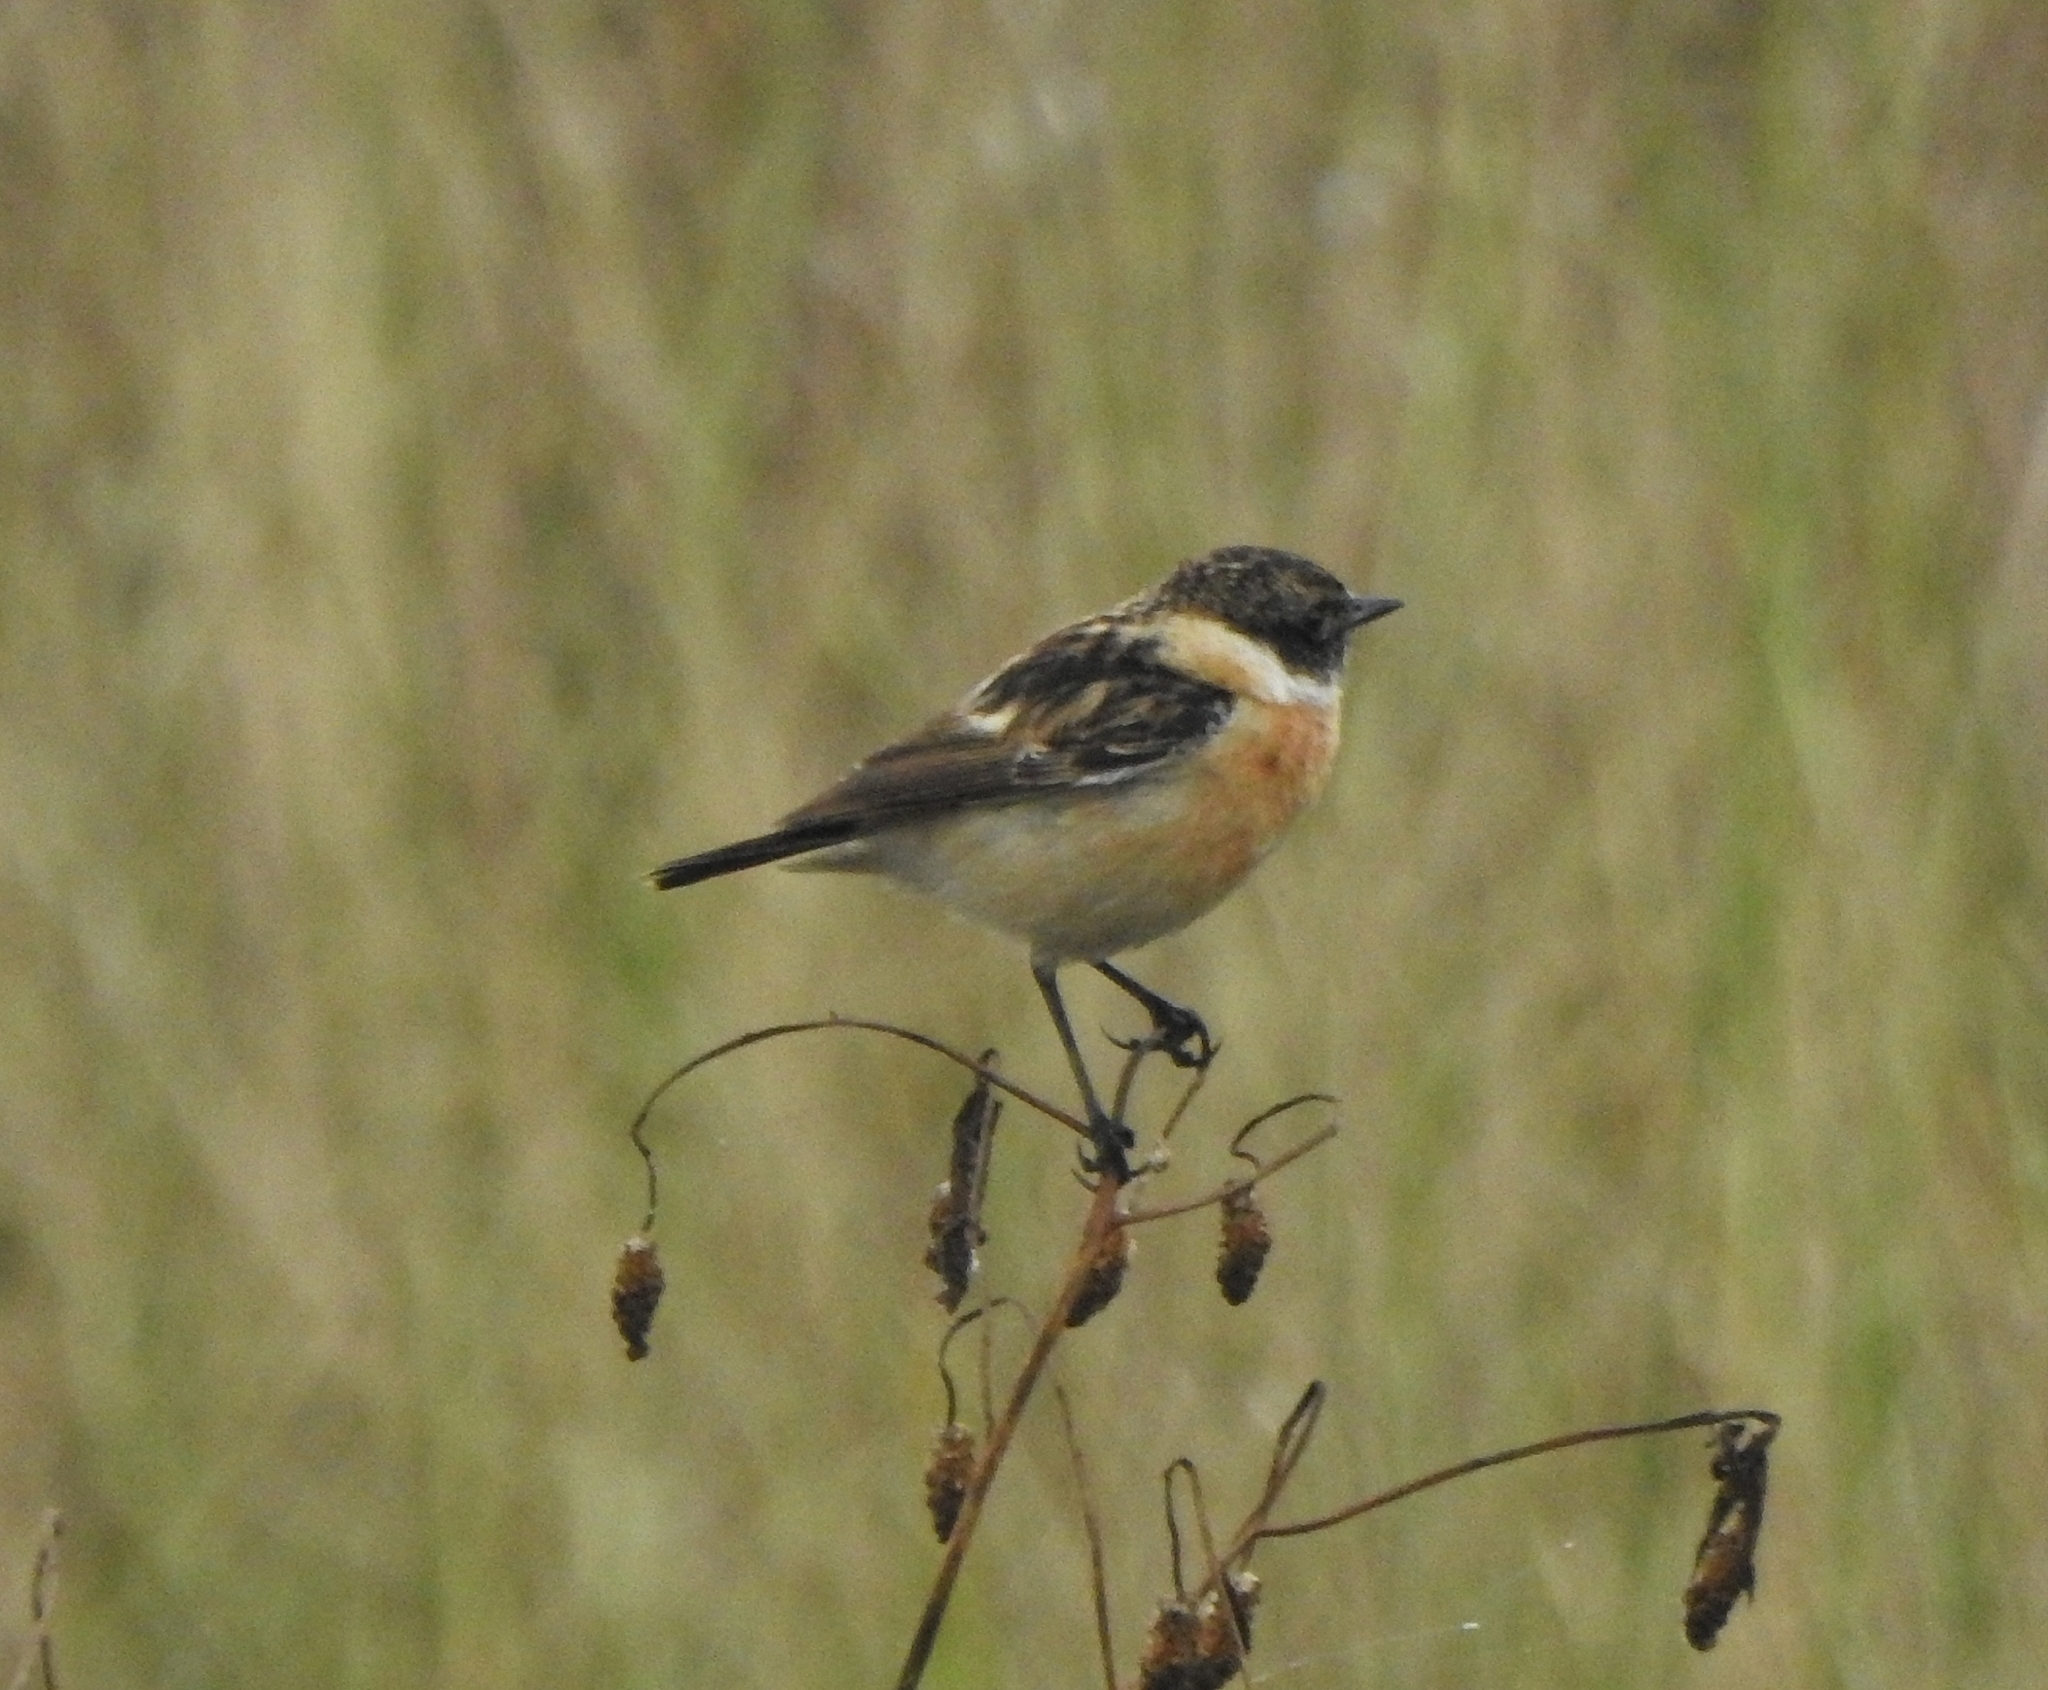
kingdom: Animalia
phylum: Chordata
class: Aves
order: Passeriformes
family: Muscicapidae
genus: Saxicola
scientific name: Saxicola maurus
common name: Siberian stonechat
